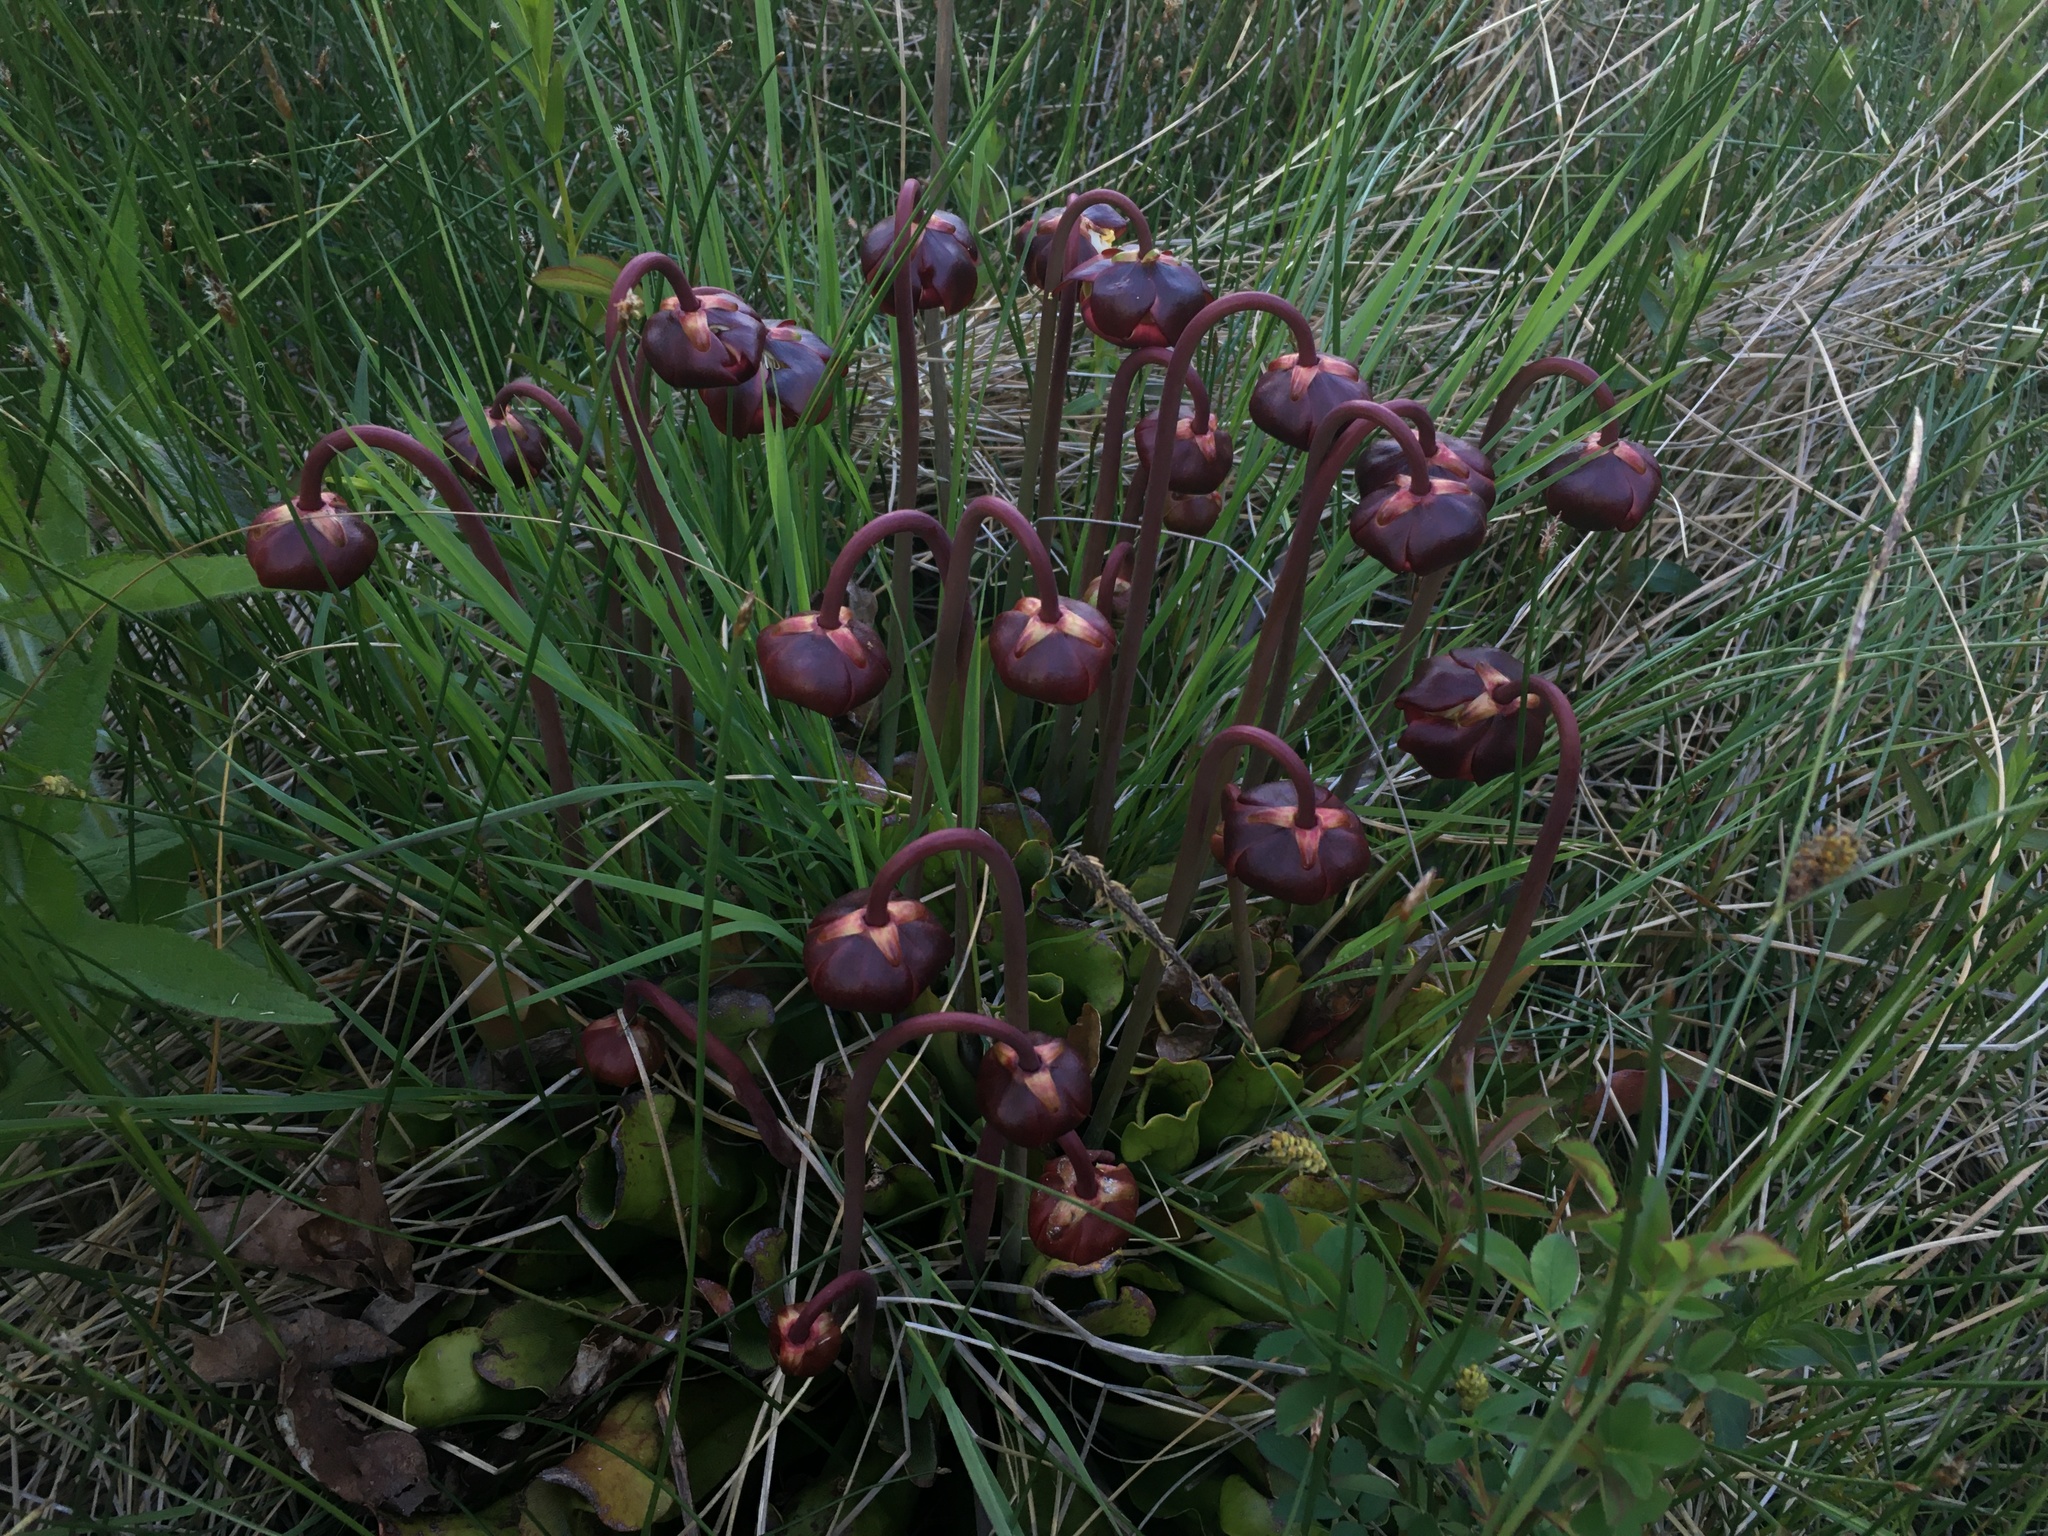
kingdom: Plantae
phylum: Tracheophyta
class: Magnoliopsida
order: Ericales
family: Sarraceniaceae
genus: Sarracenia
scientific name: Sarracenia purpurea
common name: Pitcherplant
